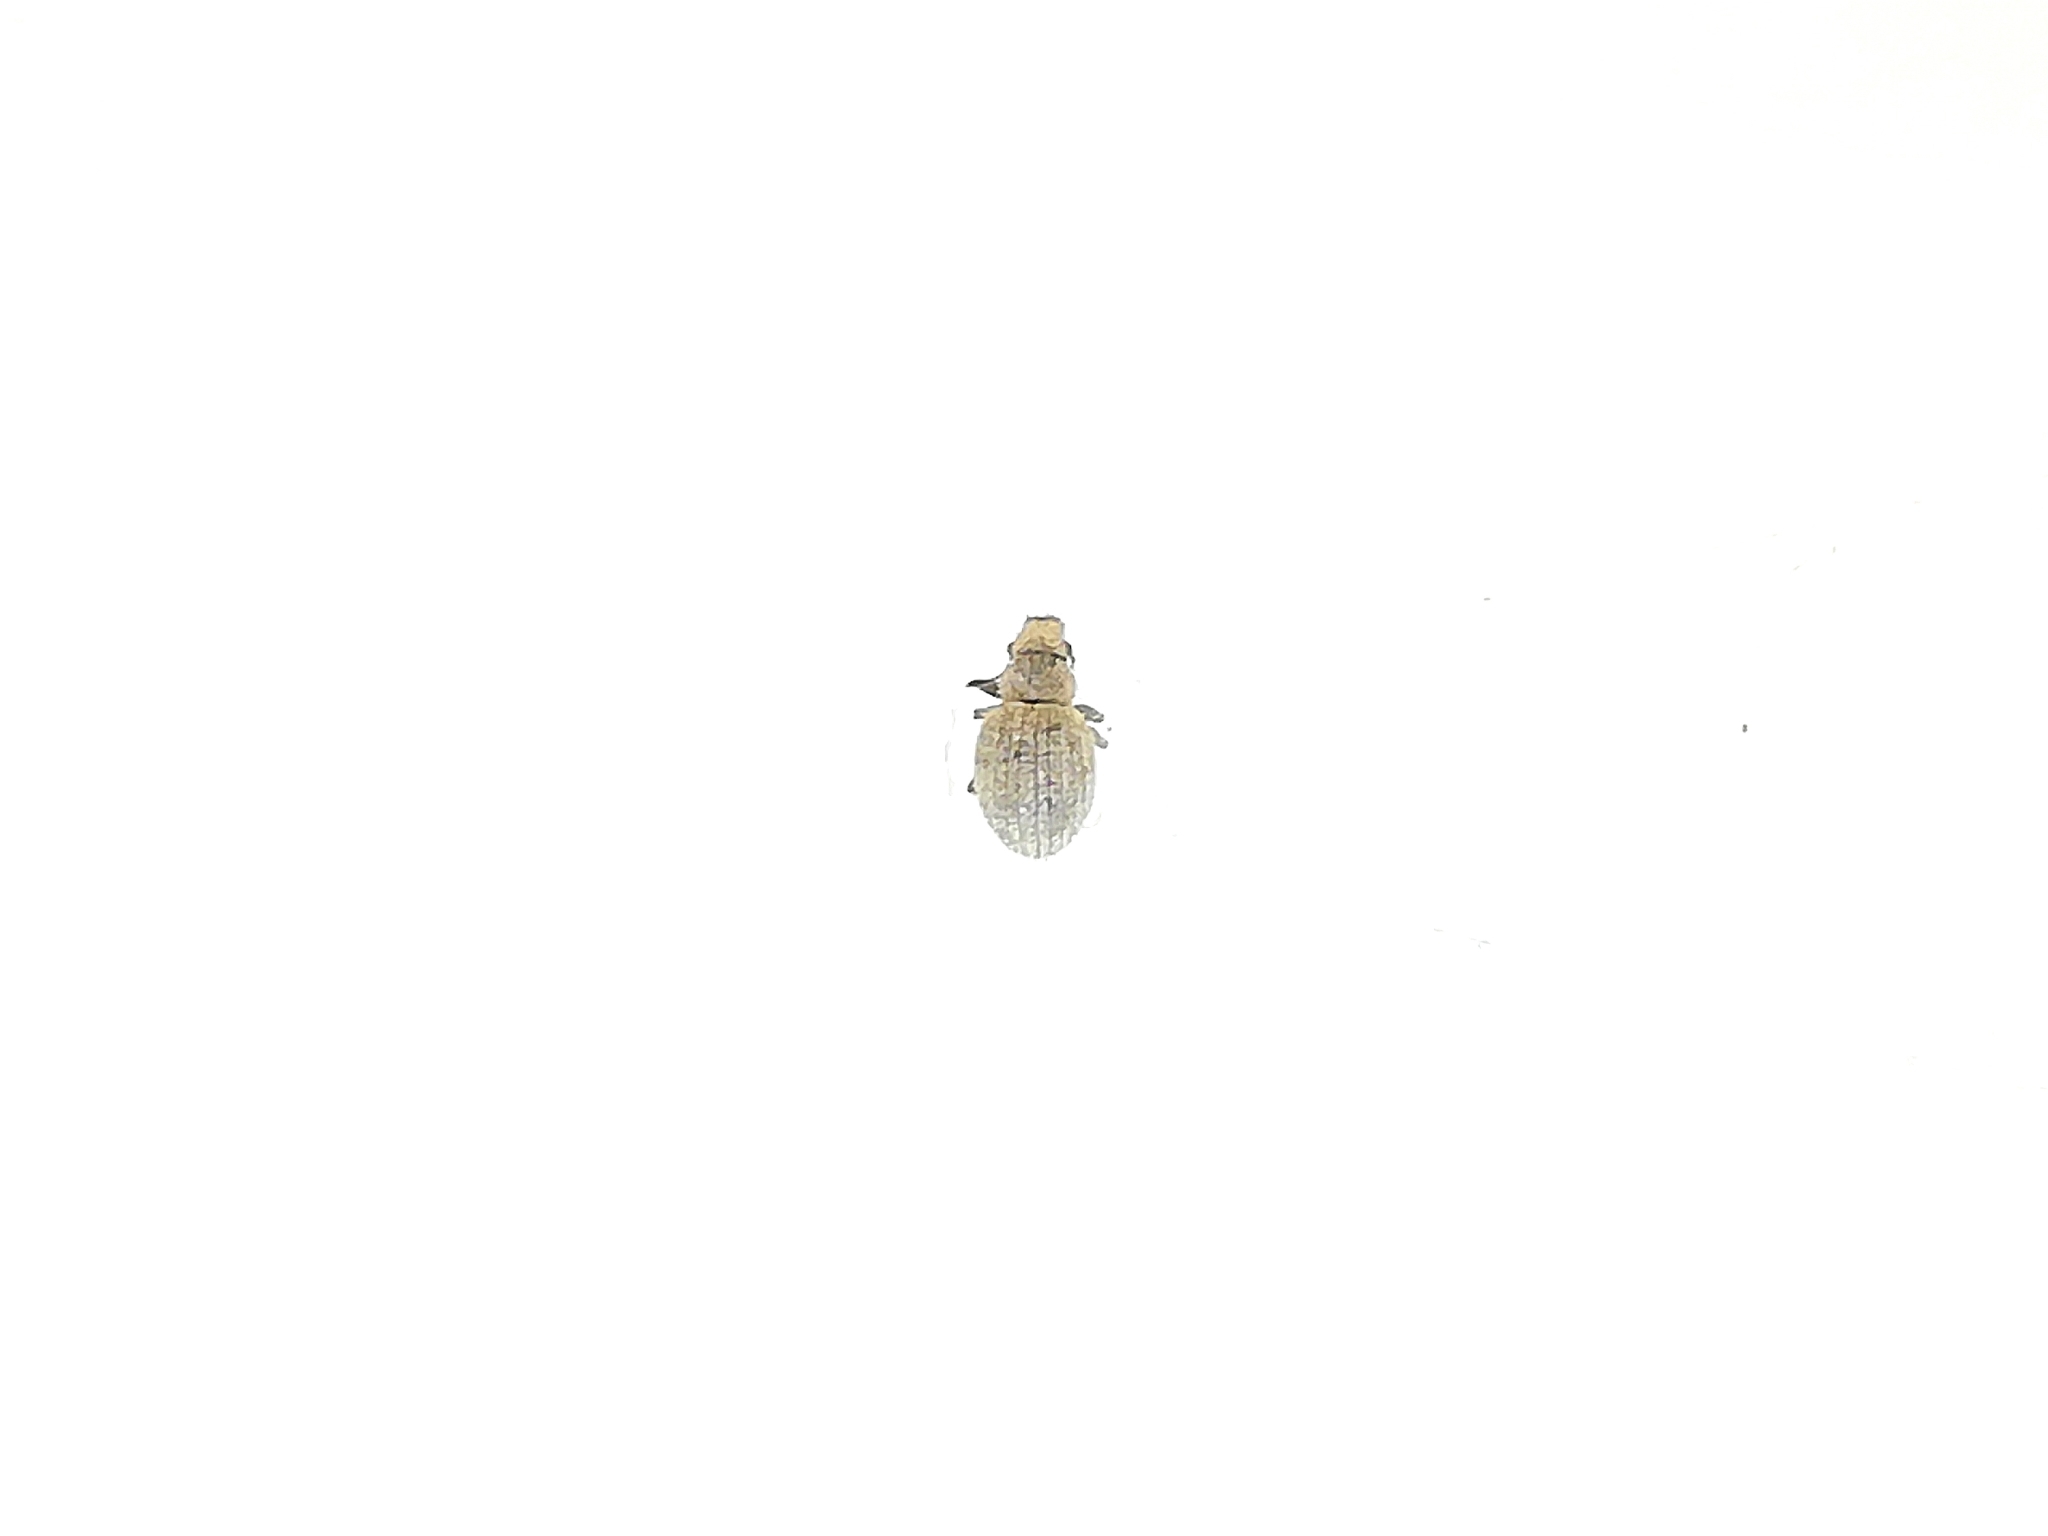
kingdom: Animalia
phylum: Arthropoda
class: Insecta
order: Coleoptera
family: Curculionidae
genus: Foucartia
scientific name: Foucartia squamulata
